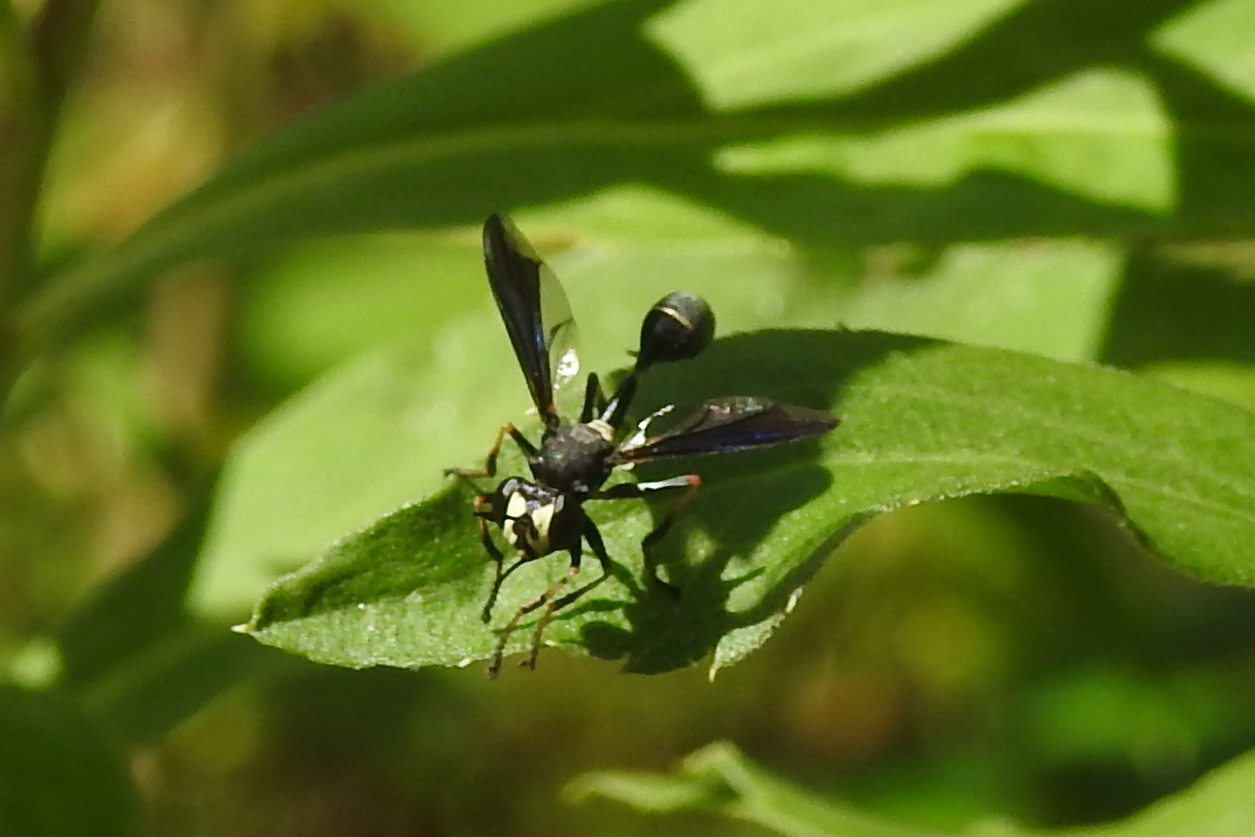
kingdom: Animalia
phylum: Arthropoda
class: Insecta
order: Diptera
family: Conopidae
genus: Physocephala
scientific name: Physocephala tibialis
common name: Common eastern physocephala
